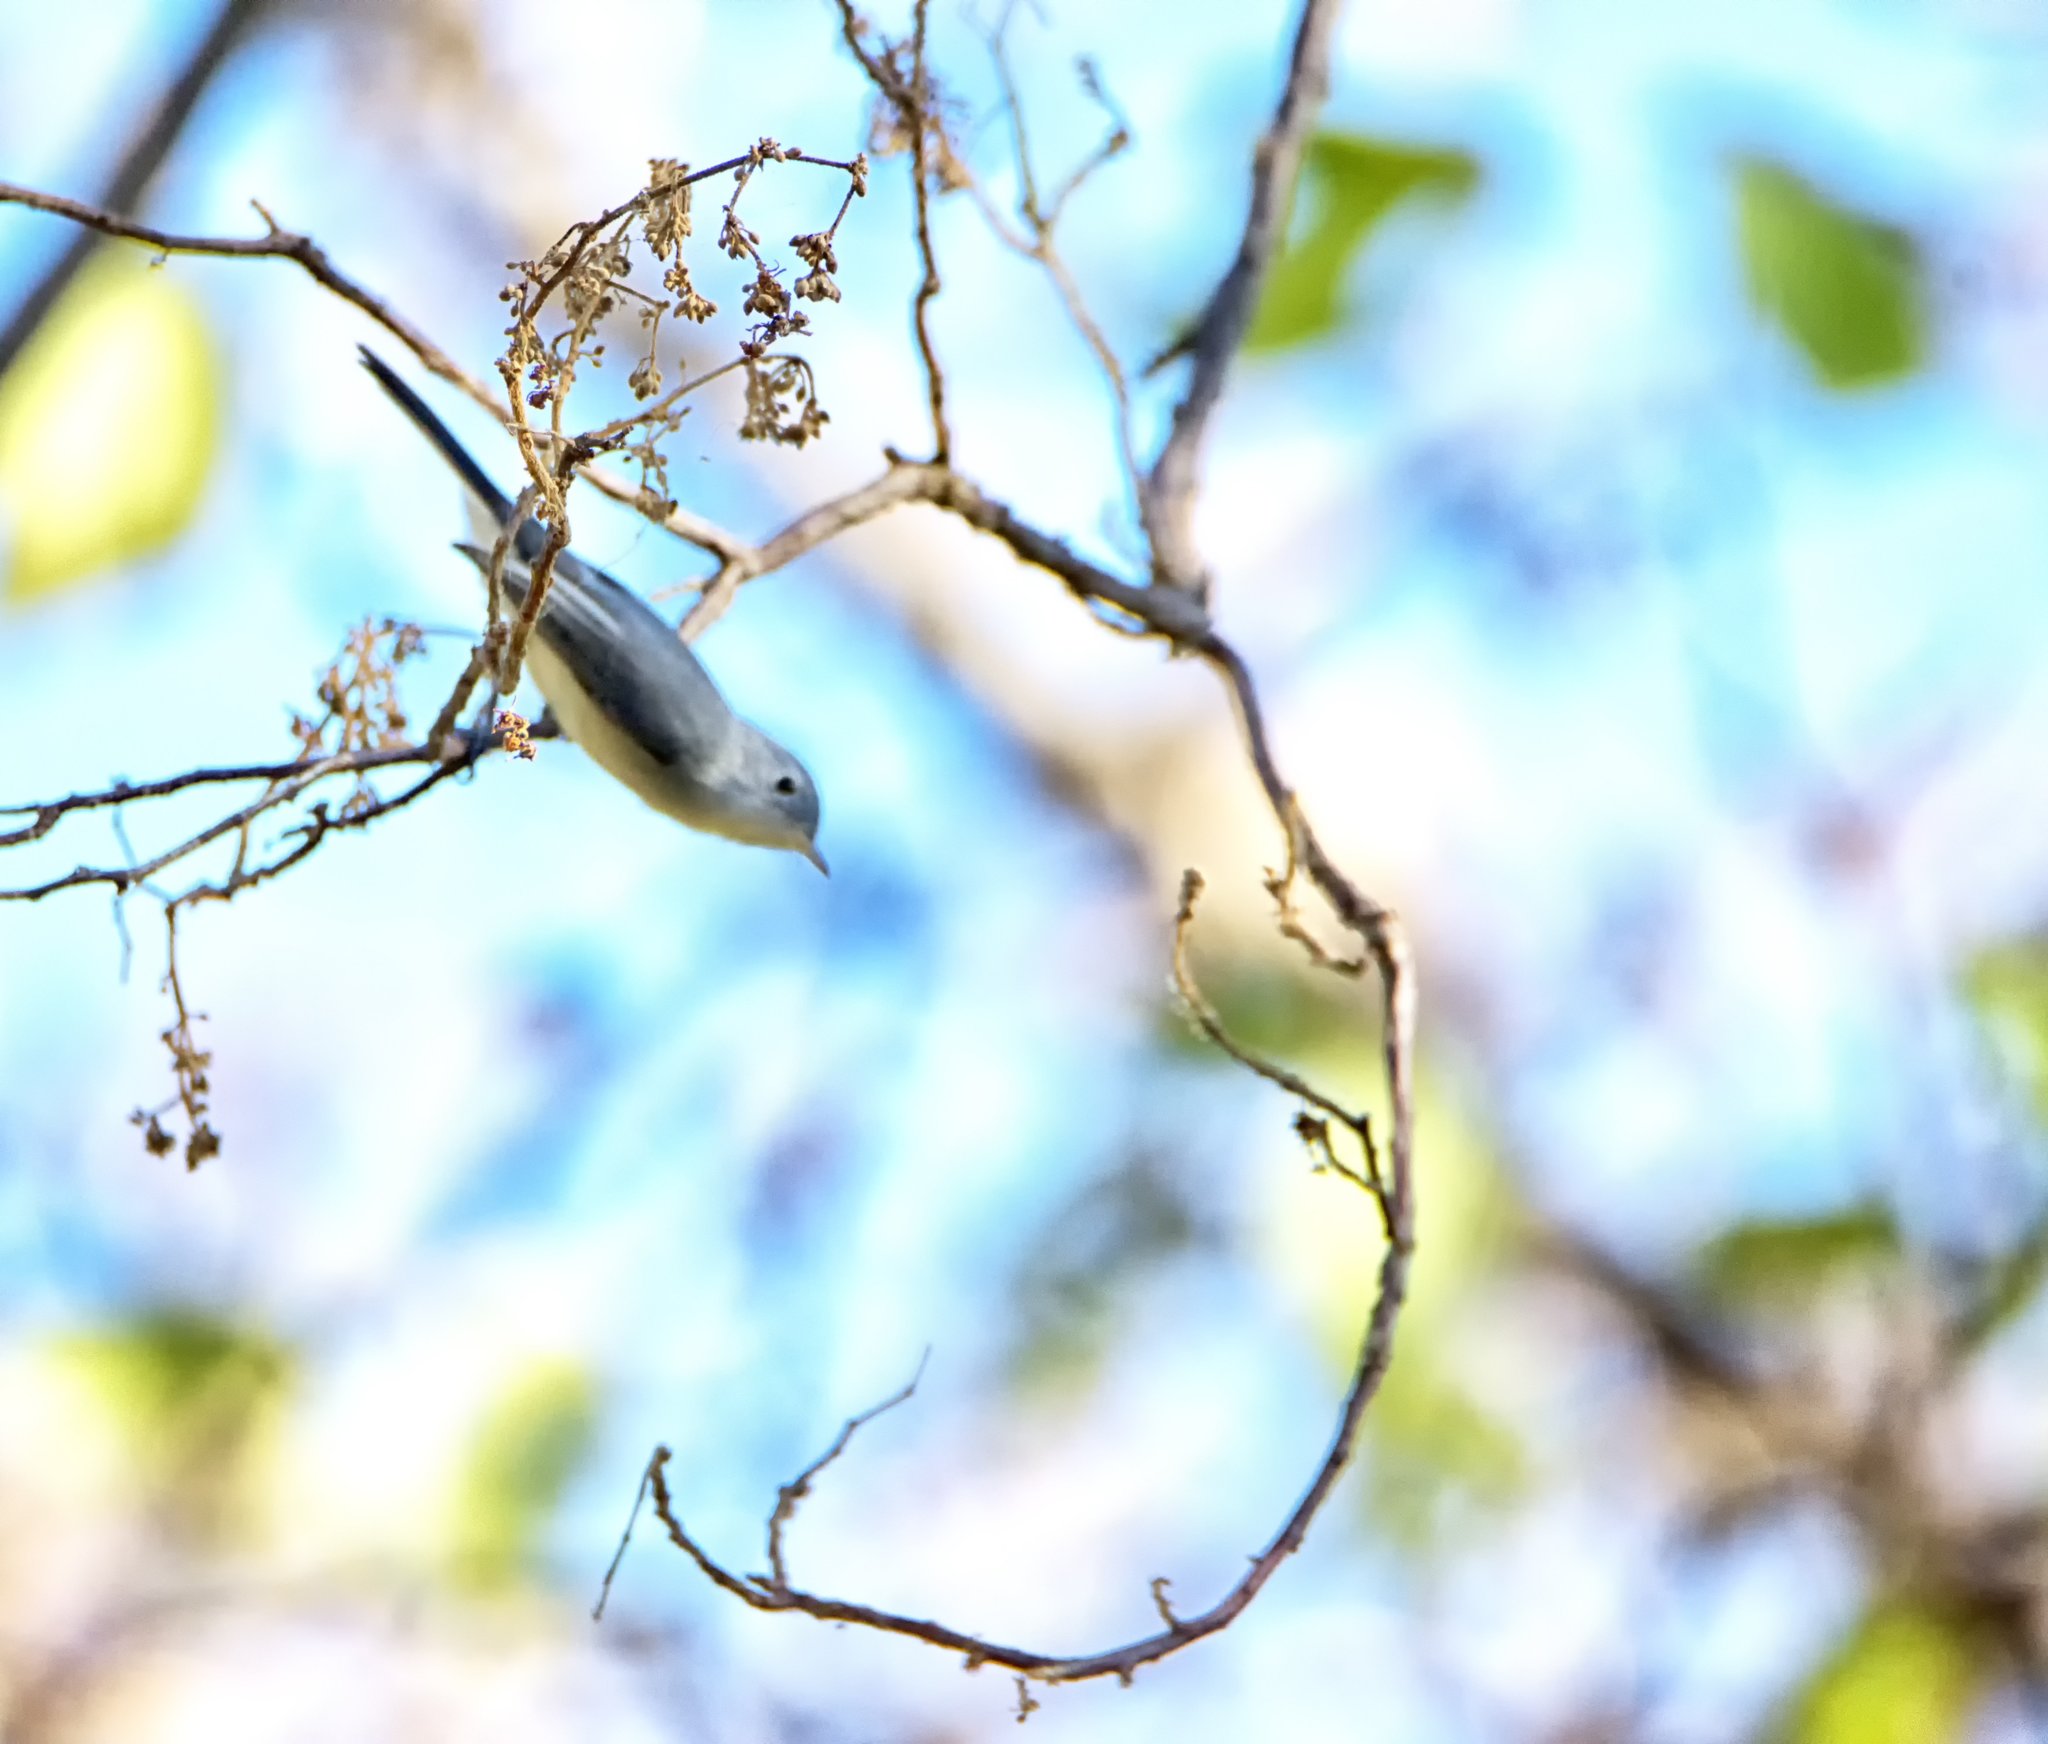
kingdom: Animalia
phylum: Chordata
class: Aves
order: Passeriformes
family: Polioptilidae
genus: Polioptila
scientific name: Polioptila caerulea
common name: Blue-gray gnatcatcher
